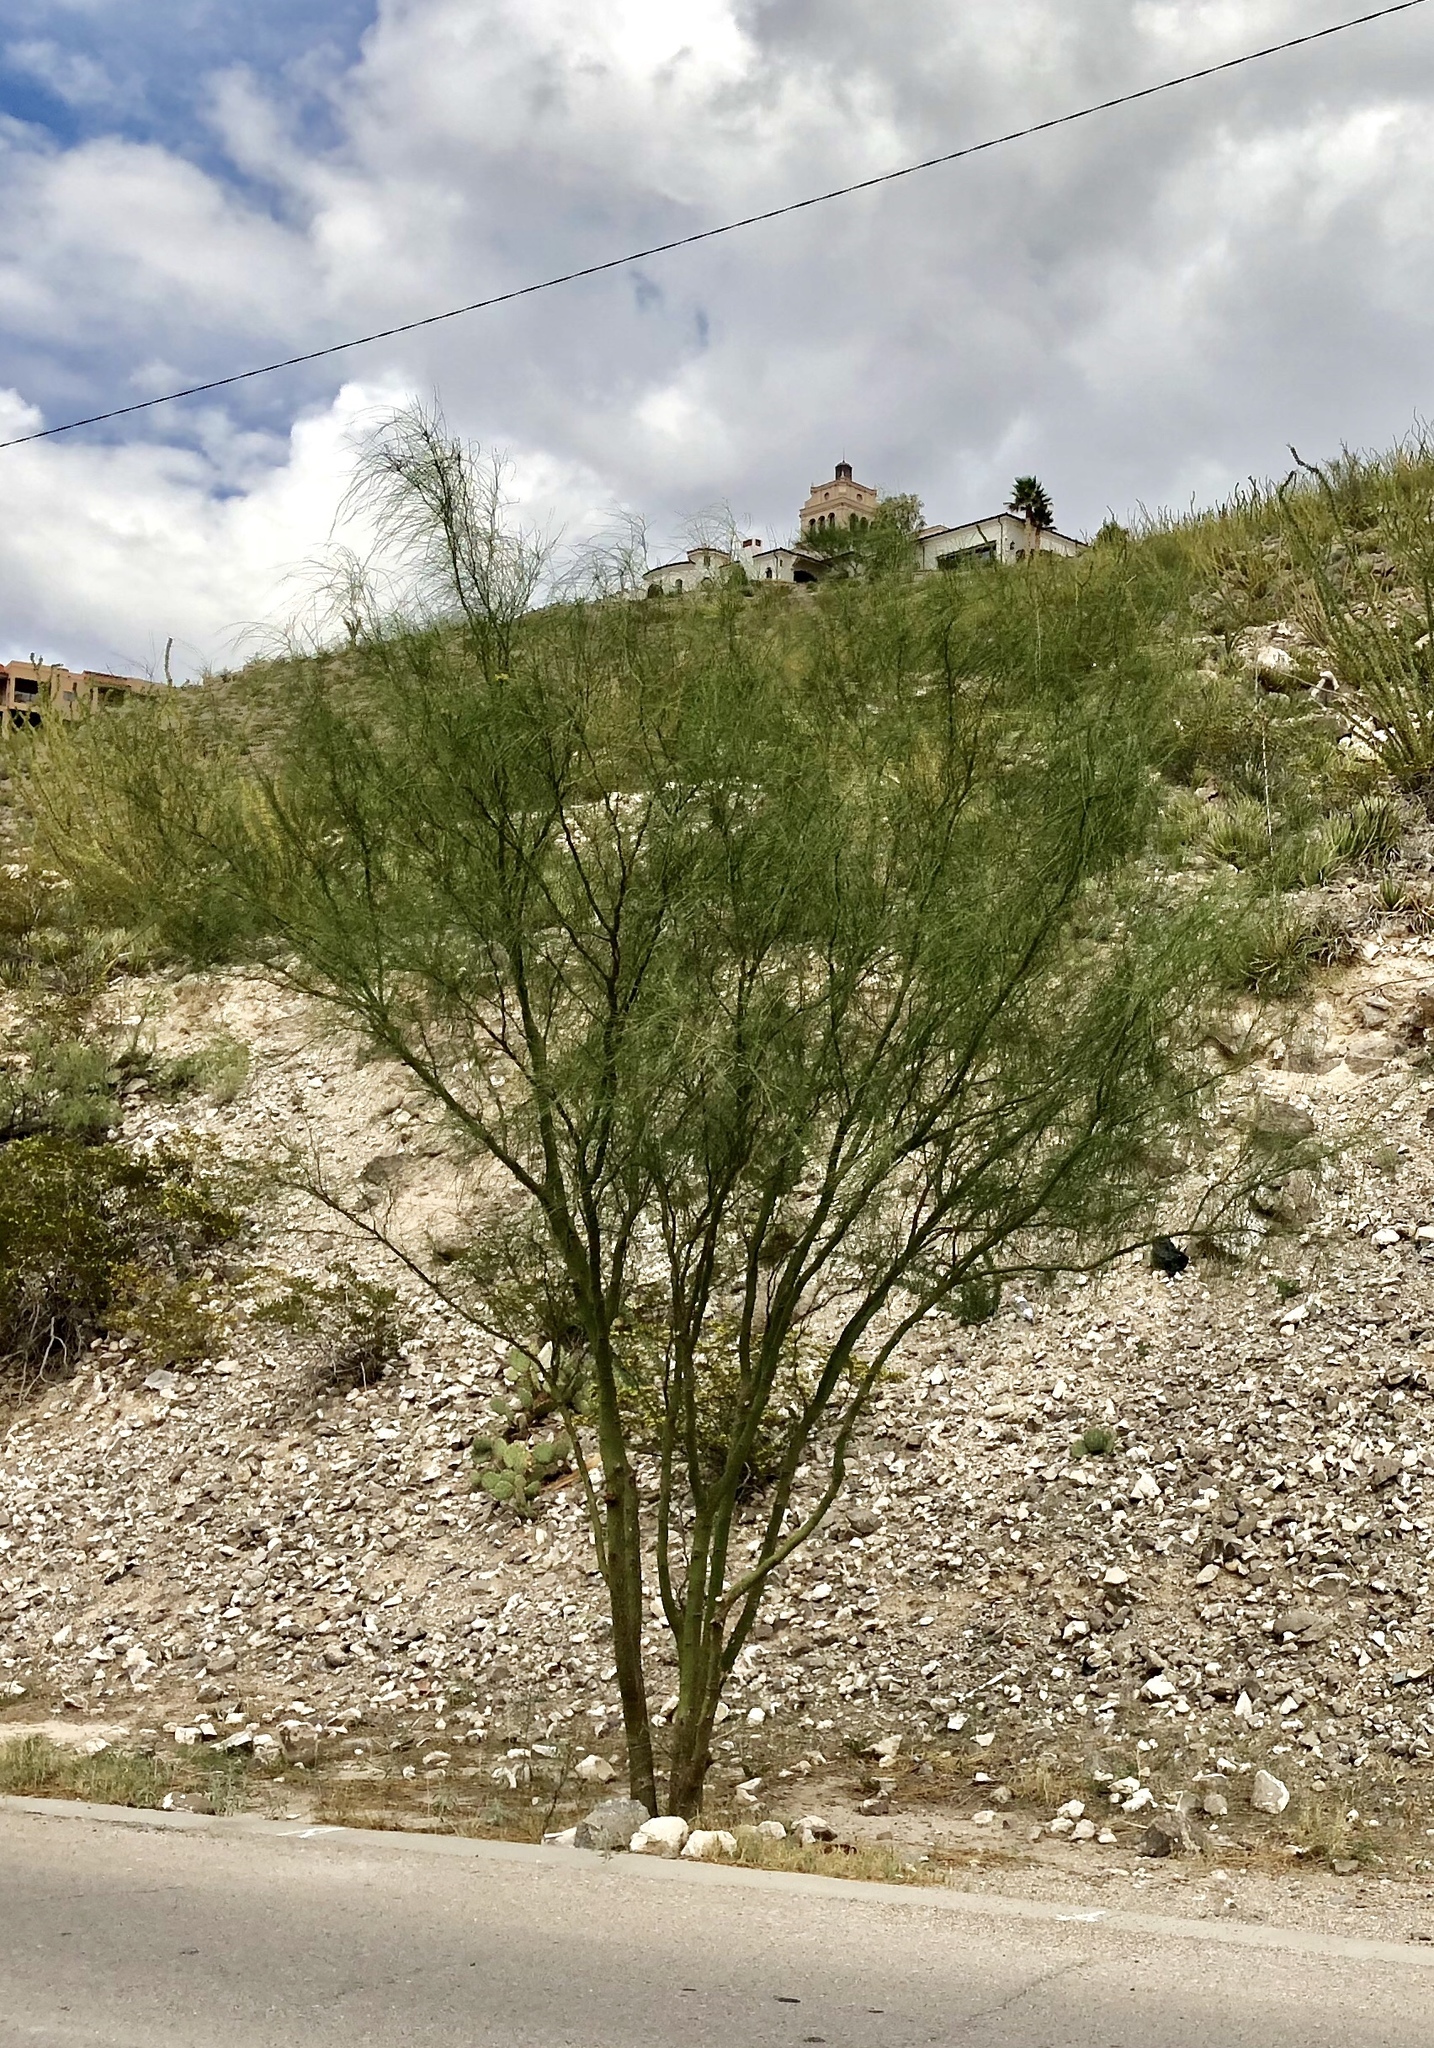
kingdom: Plantae
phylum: Tracheophyta
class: Magnoliopsida
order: Fabales
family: Fabaceae
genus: Parkinsonia
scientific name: Parkinsonia aculeata
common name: Jerusalem thorn
